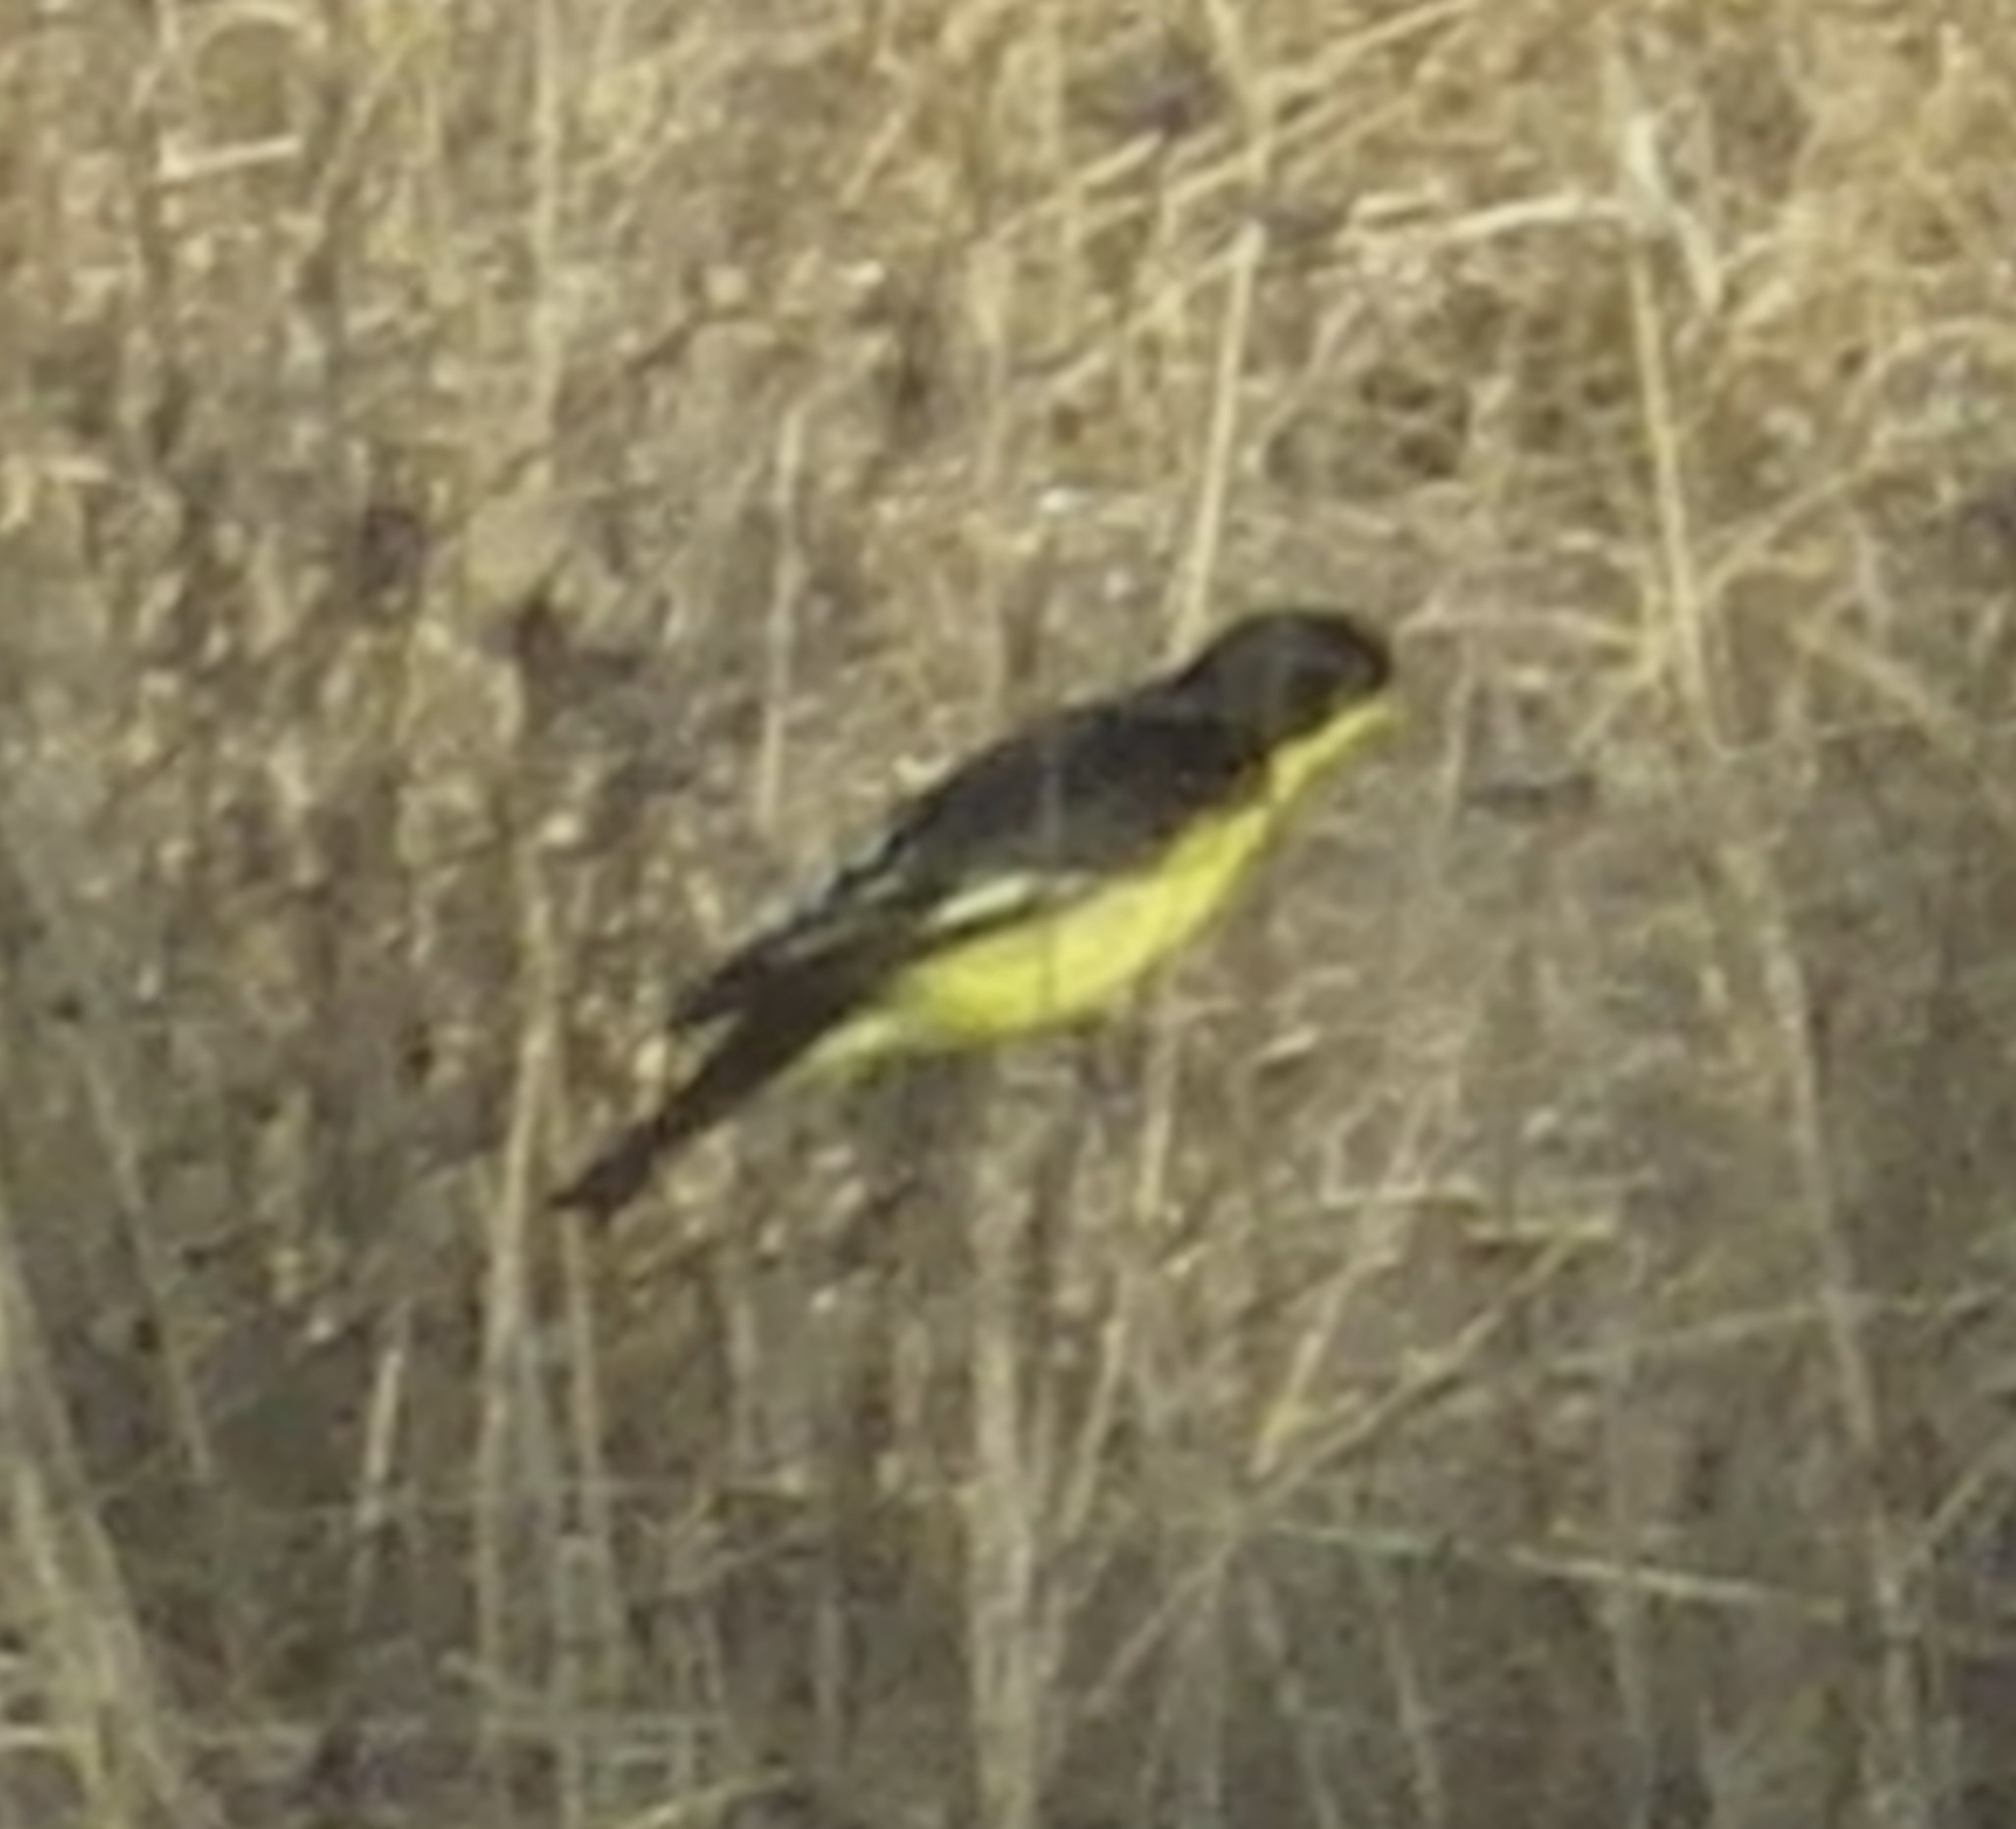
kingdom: Animalia
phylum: Chordata
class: Aves
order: Passeriformes
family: Fringillidae
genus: Spinus
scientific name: Spinus psaltria
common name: Lesser goldfinch
